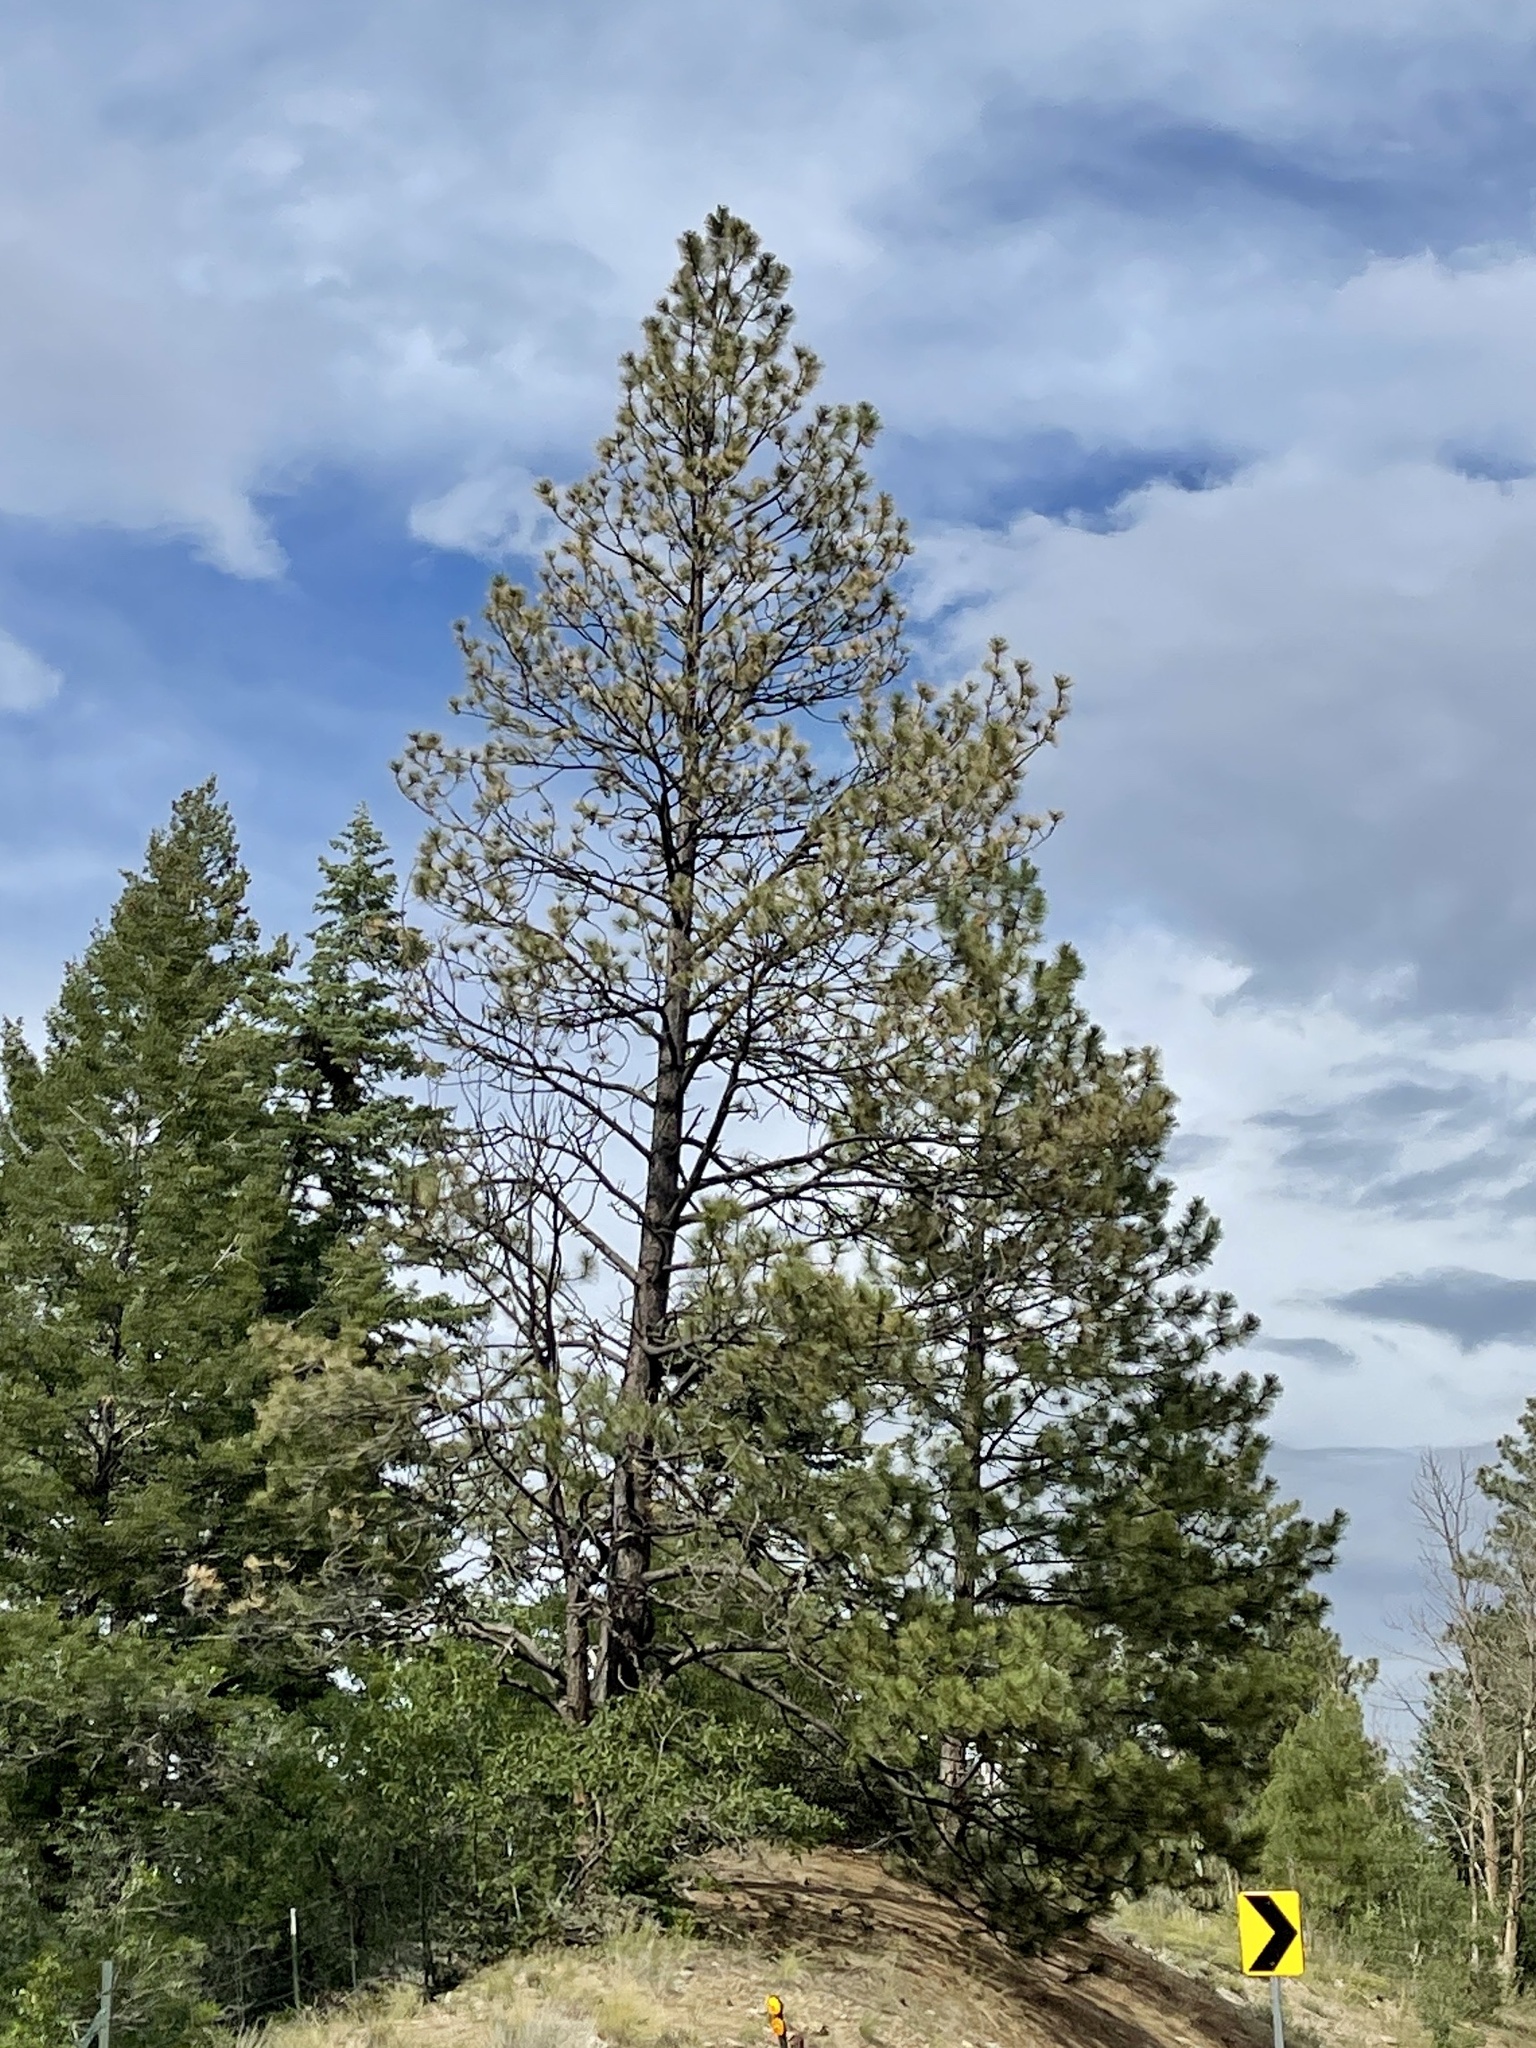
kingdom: Plantae
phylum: Tracheophyta
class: Pinopsida
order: Pinales
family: Pinaceae
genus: Pinus
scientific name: Pinus ponderosa
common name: Western yellow-pine
